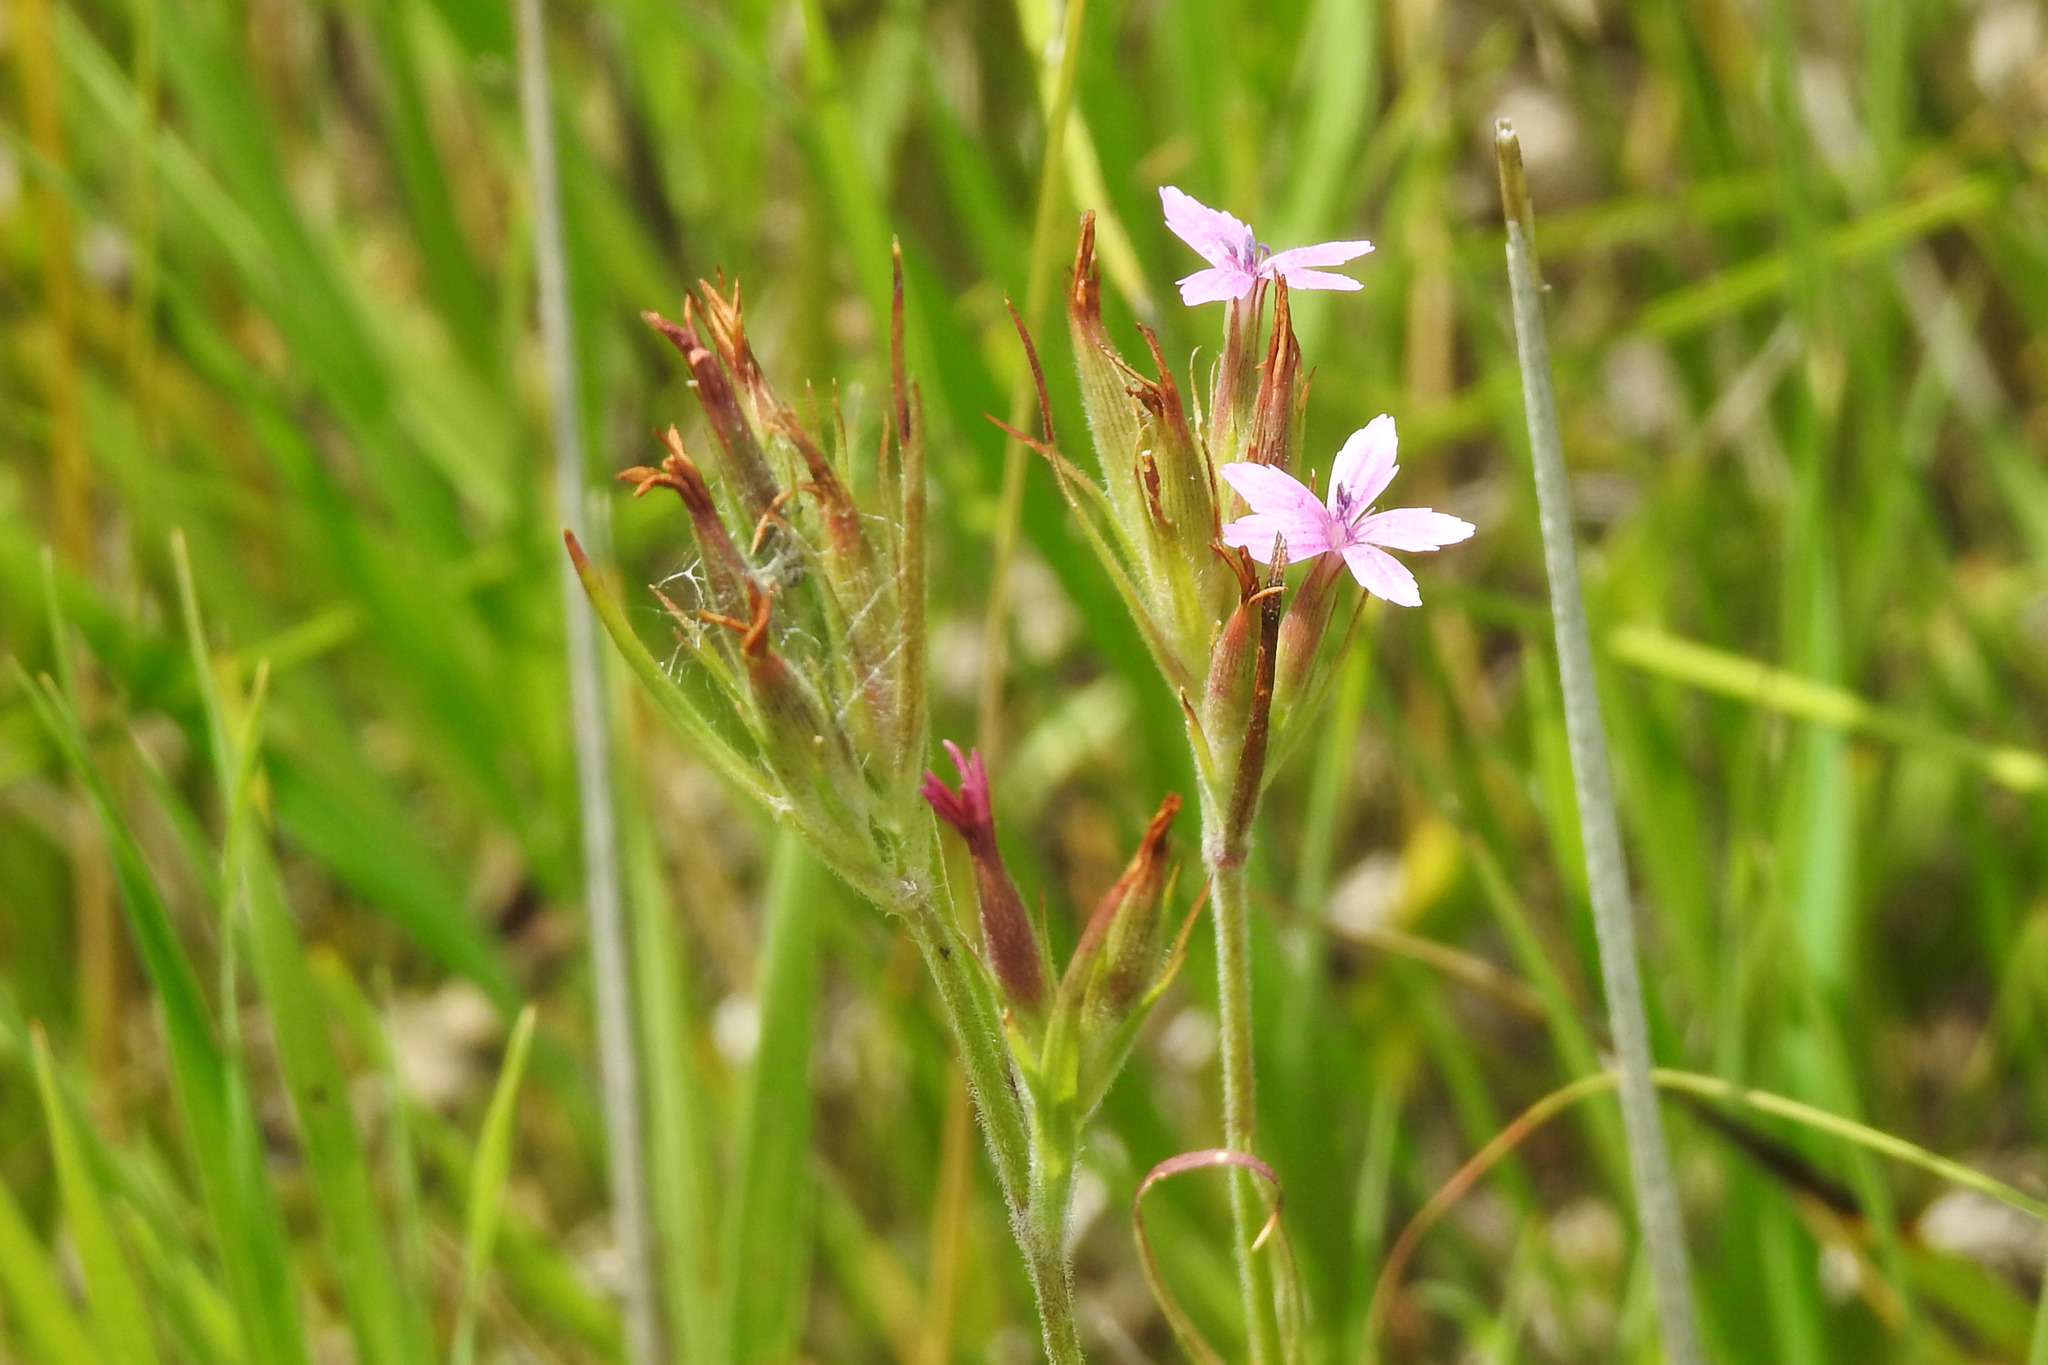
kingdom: Plantae
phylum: Tracheophyta
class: Magnoliopsida
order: Caryophyllales
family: Caryophyllaceae
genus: Dianthus
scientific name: Dianthus armeria
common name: Deptford pink
